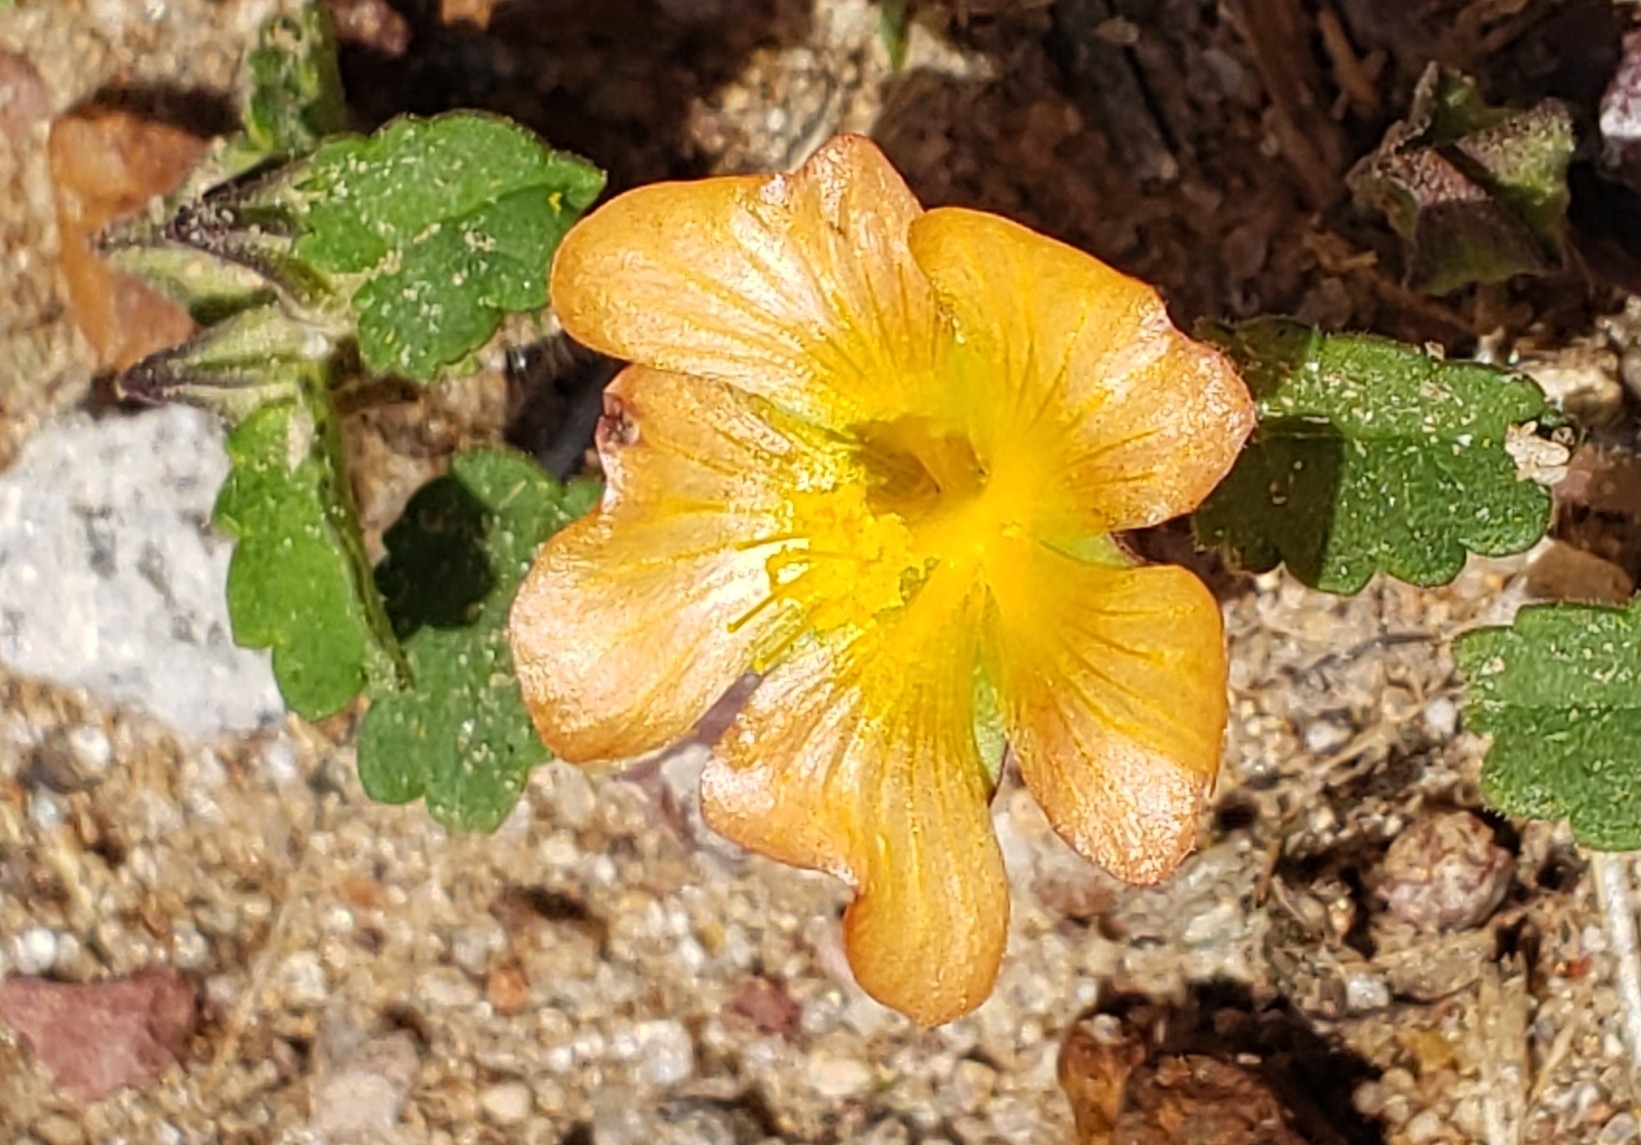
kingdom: Plantae
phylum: Tracheophyta
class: Magnoliopsida
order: Malvales
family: Malvaceae
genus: Sida
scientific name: Sida abutilifolia
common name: Spreading fanpetals
